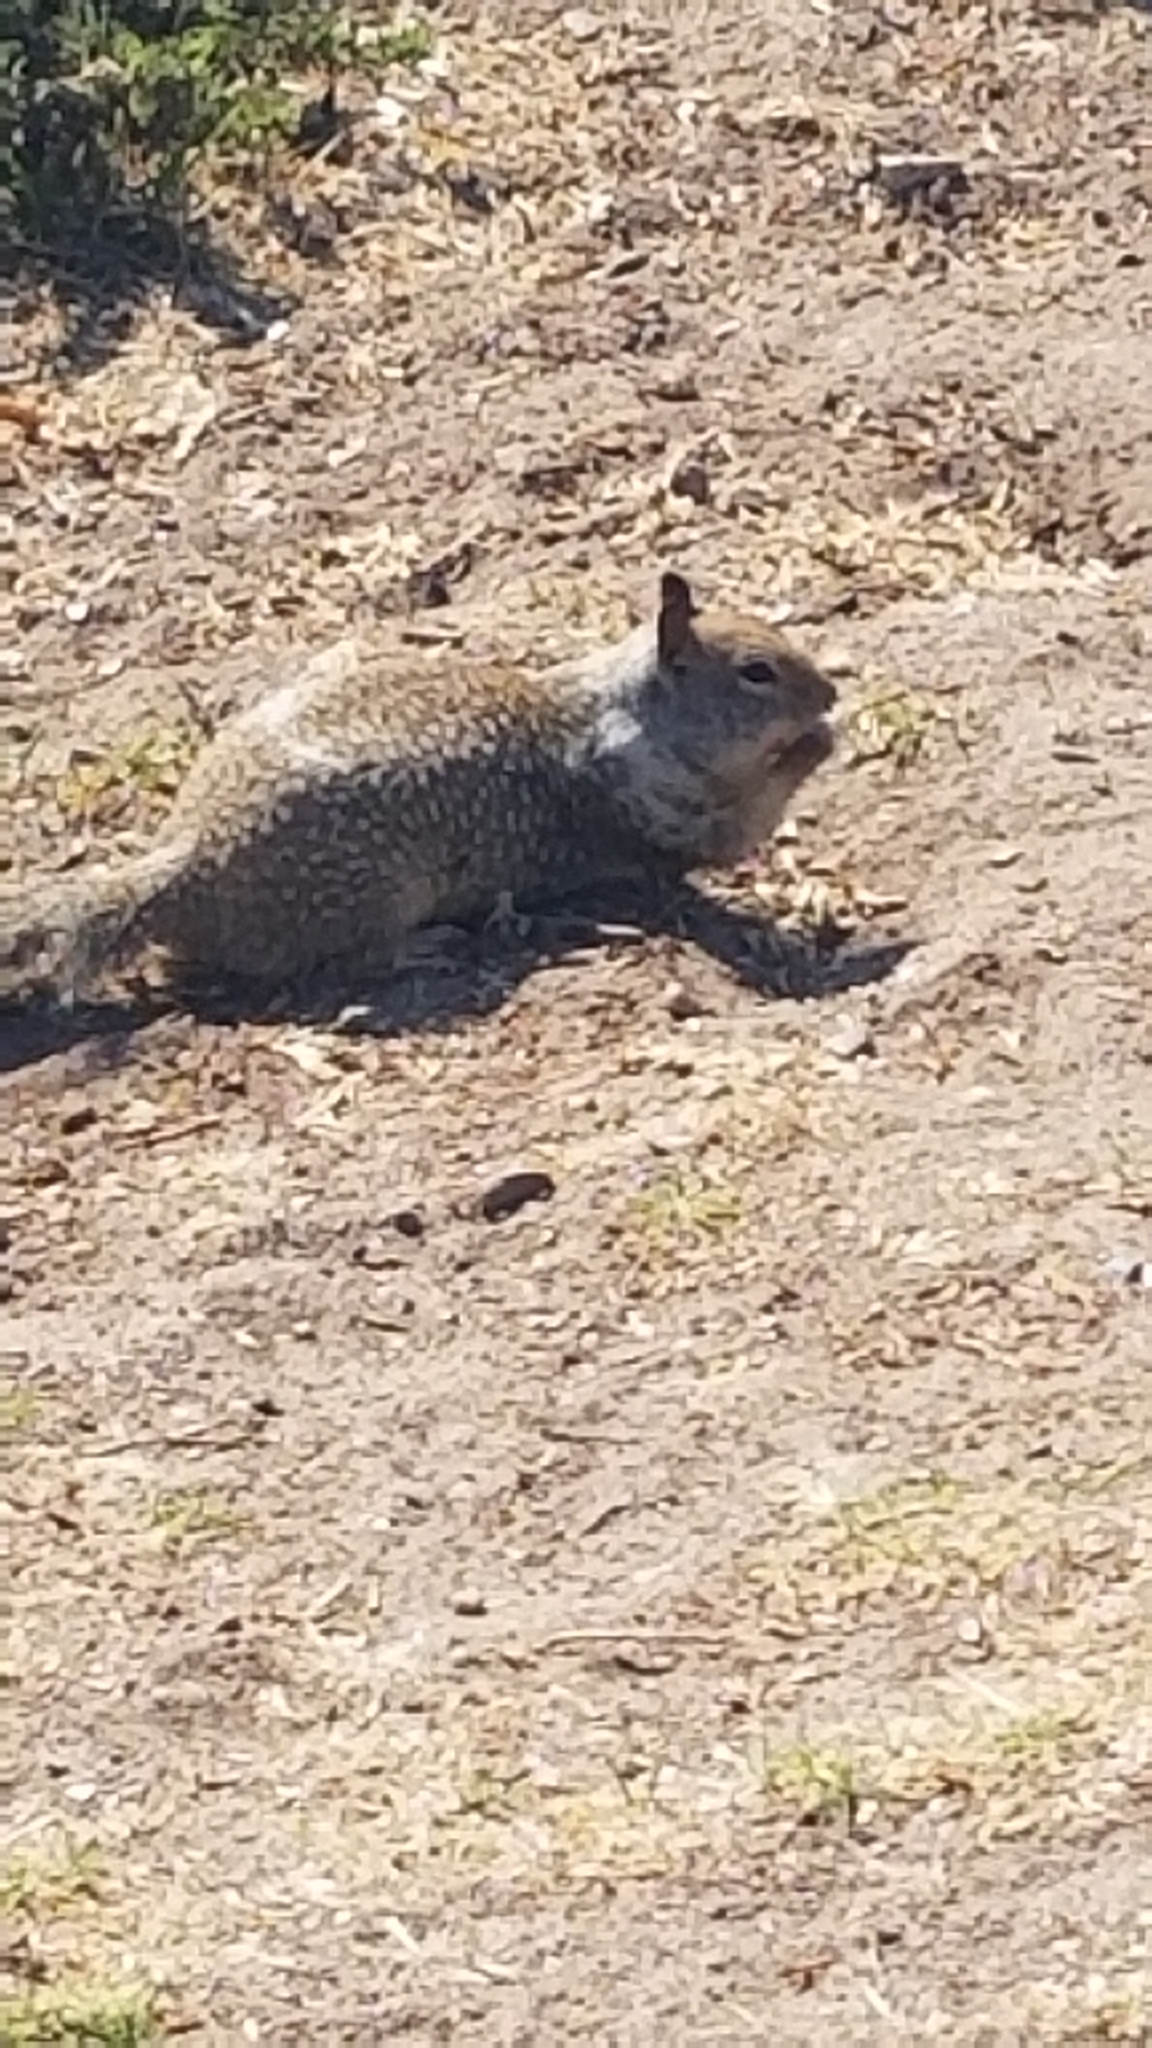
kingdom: Animalia
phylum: Chordata
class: Mammalia
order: Rodentia
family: Sciuridae
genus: Otospermophilus
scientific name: Otospermophilus beecheyi
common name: California ground squirrel
